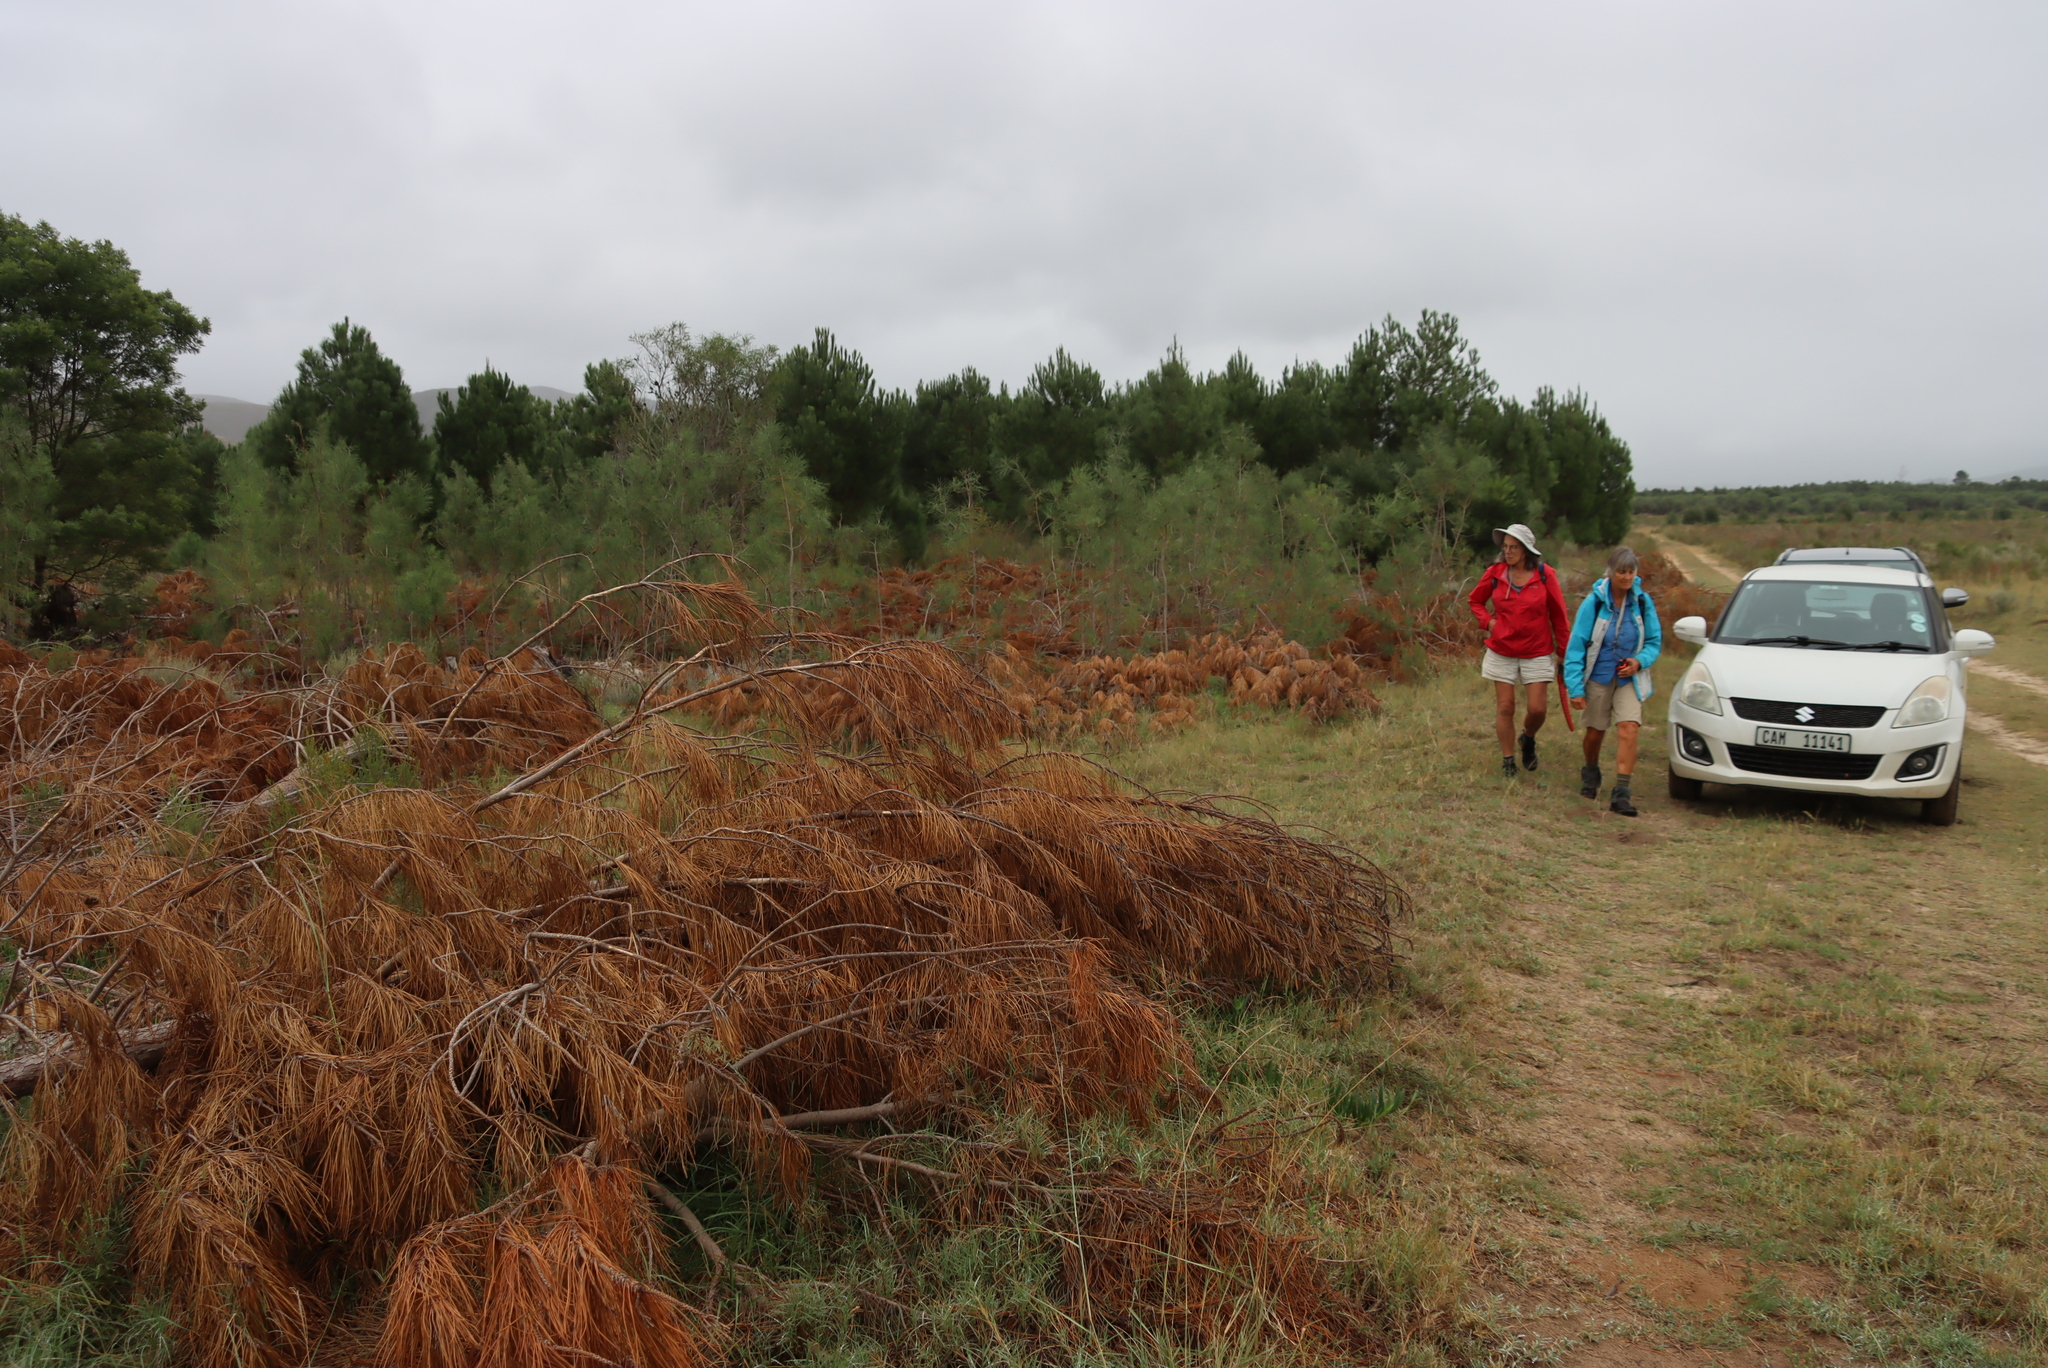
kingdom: Plantae
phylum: Tracheophyta
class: Pinopsida
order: Pinales
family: Pinaceae
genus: Pinus
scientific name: Pinus pinaster
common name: Maritime pine
